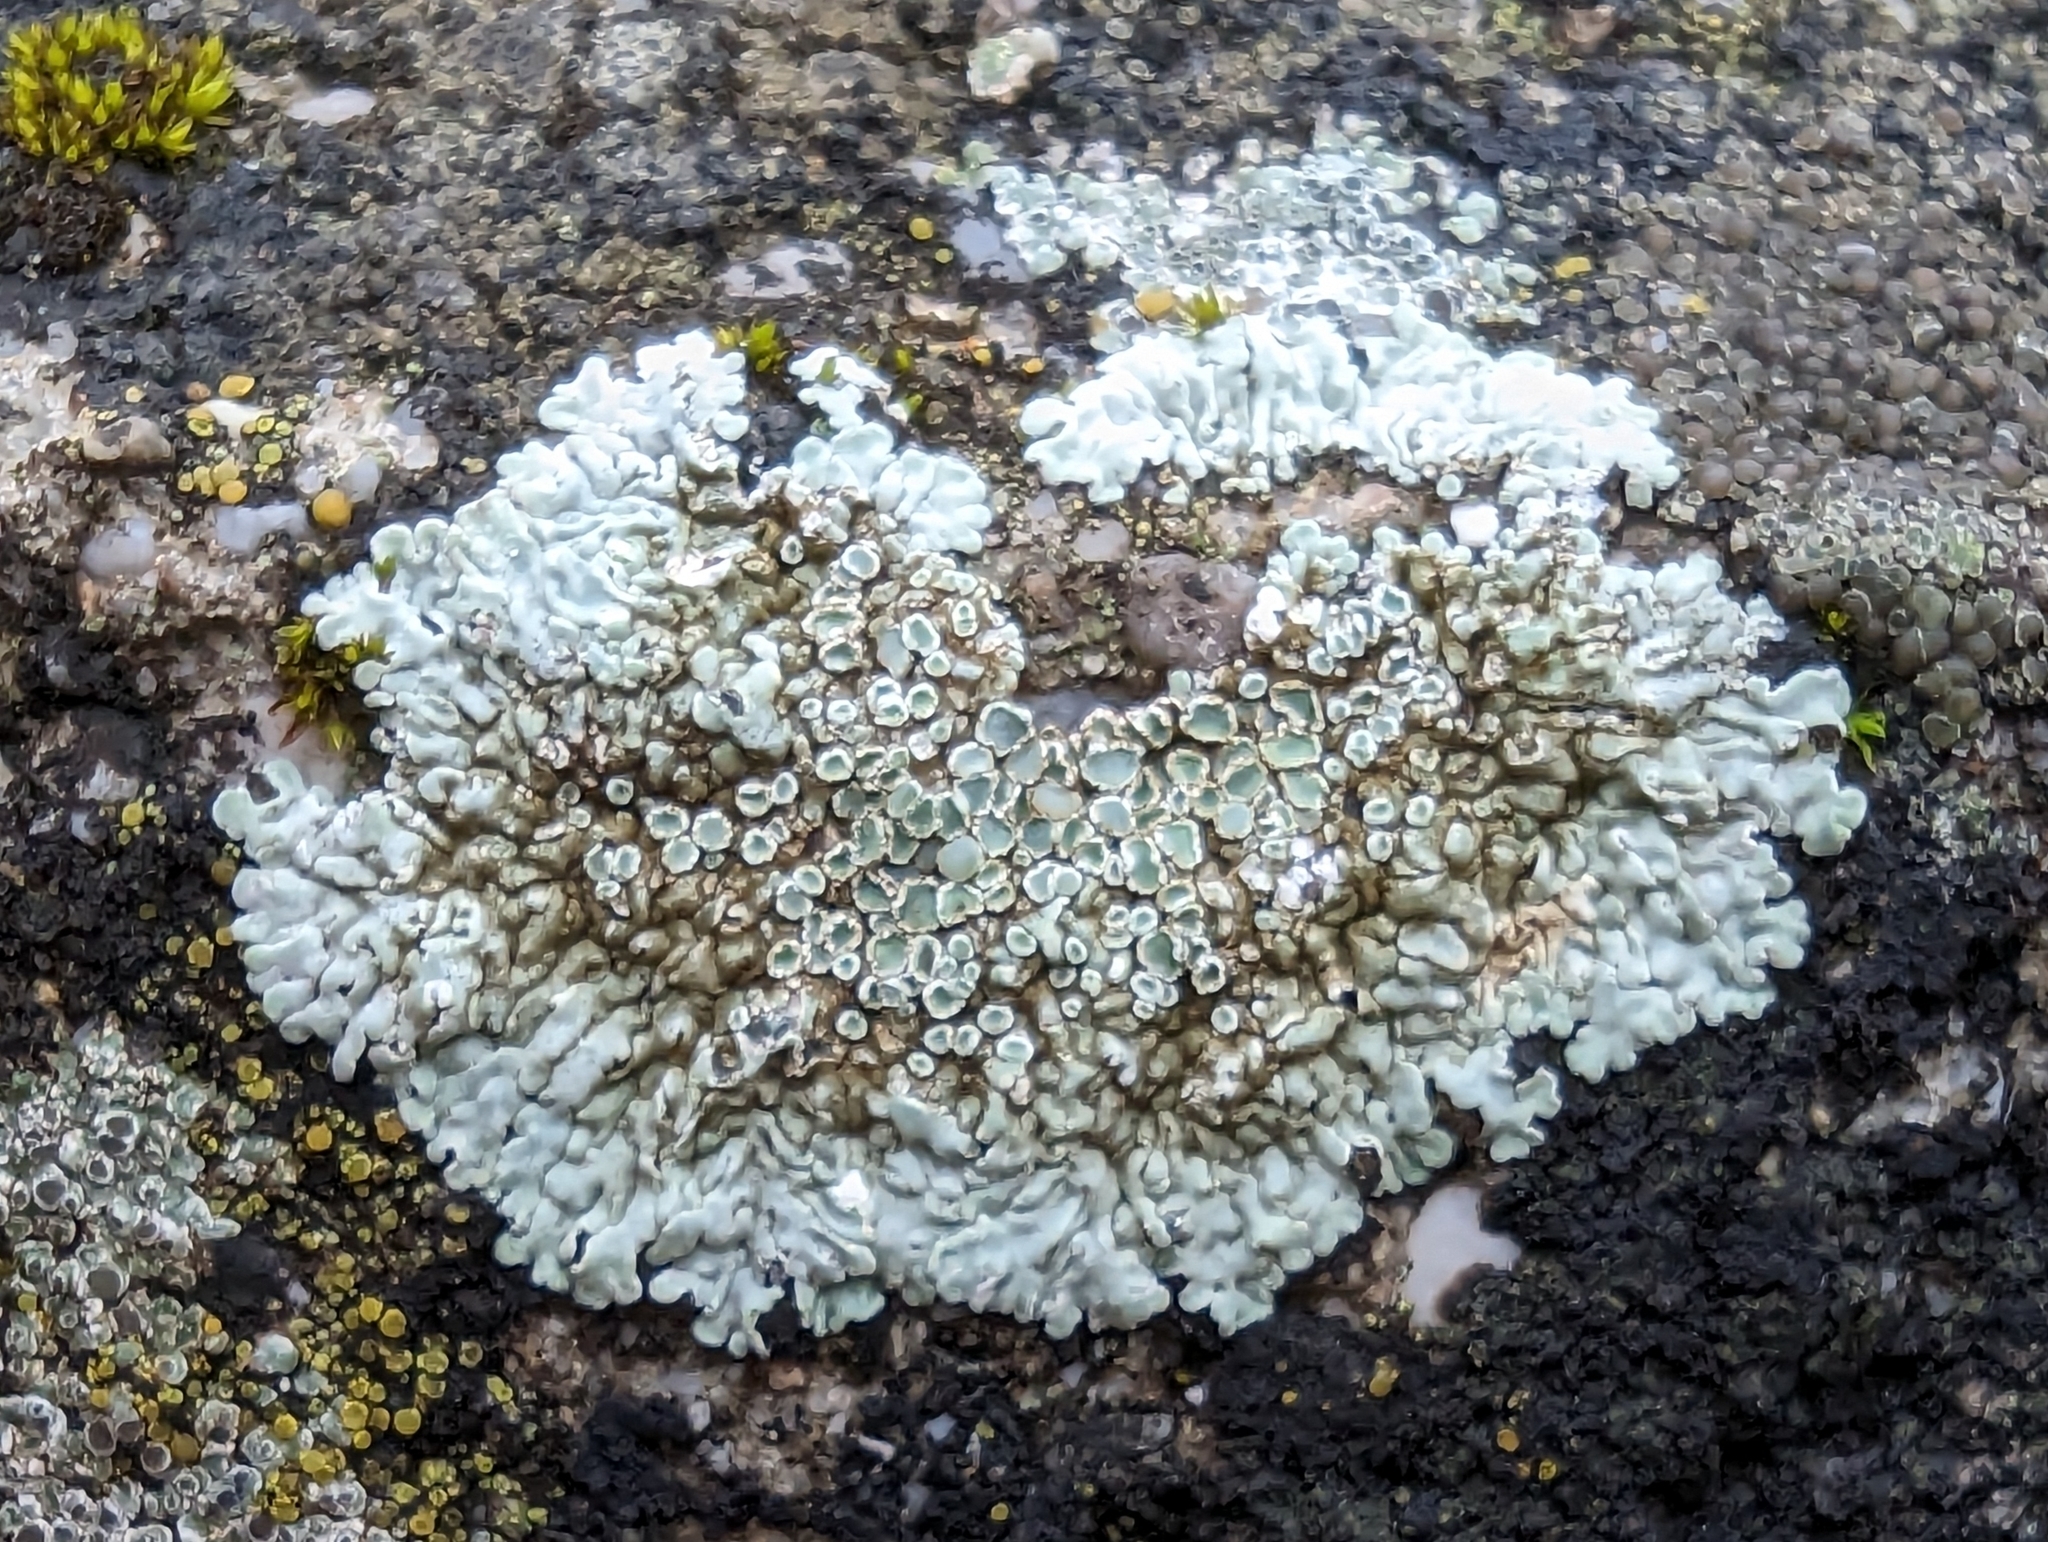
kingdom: Fungi
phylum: Ascomycota
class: Lecanoromycetes
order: Lecanorales
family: Lecanoraceae
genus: Protoparmeliopsis
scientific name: Protoparmeliopsis muralis
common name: Stonewall rim lichen
